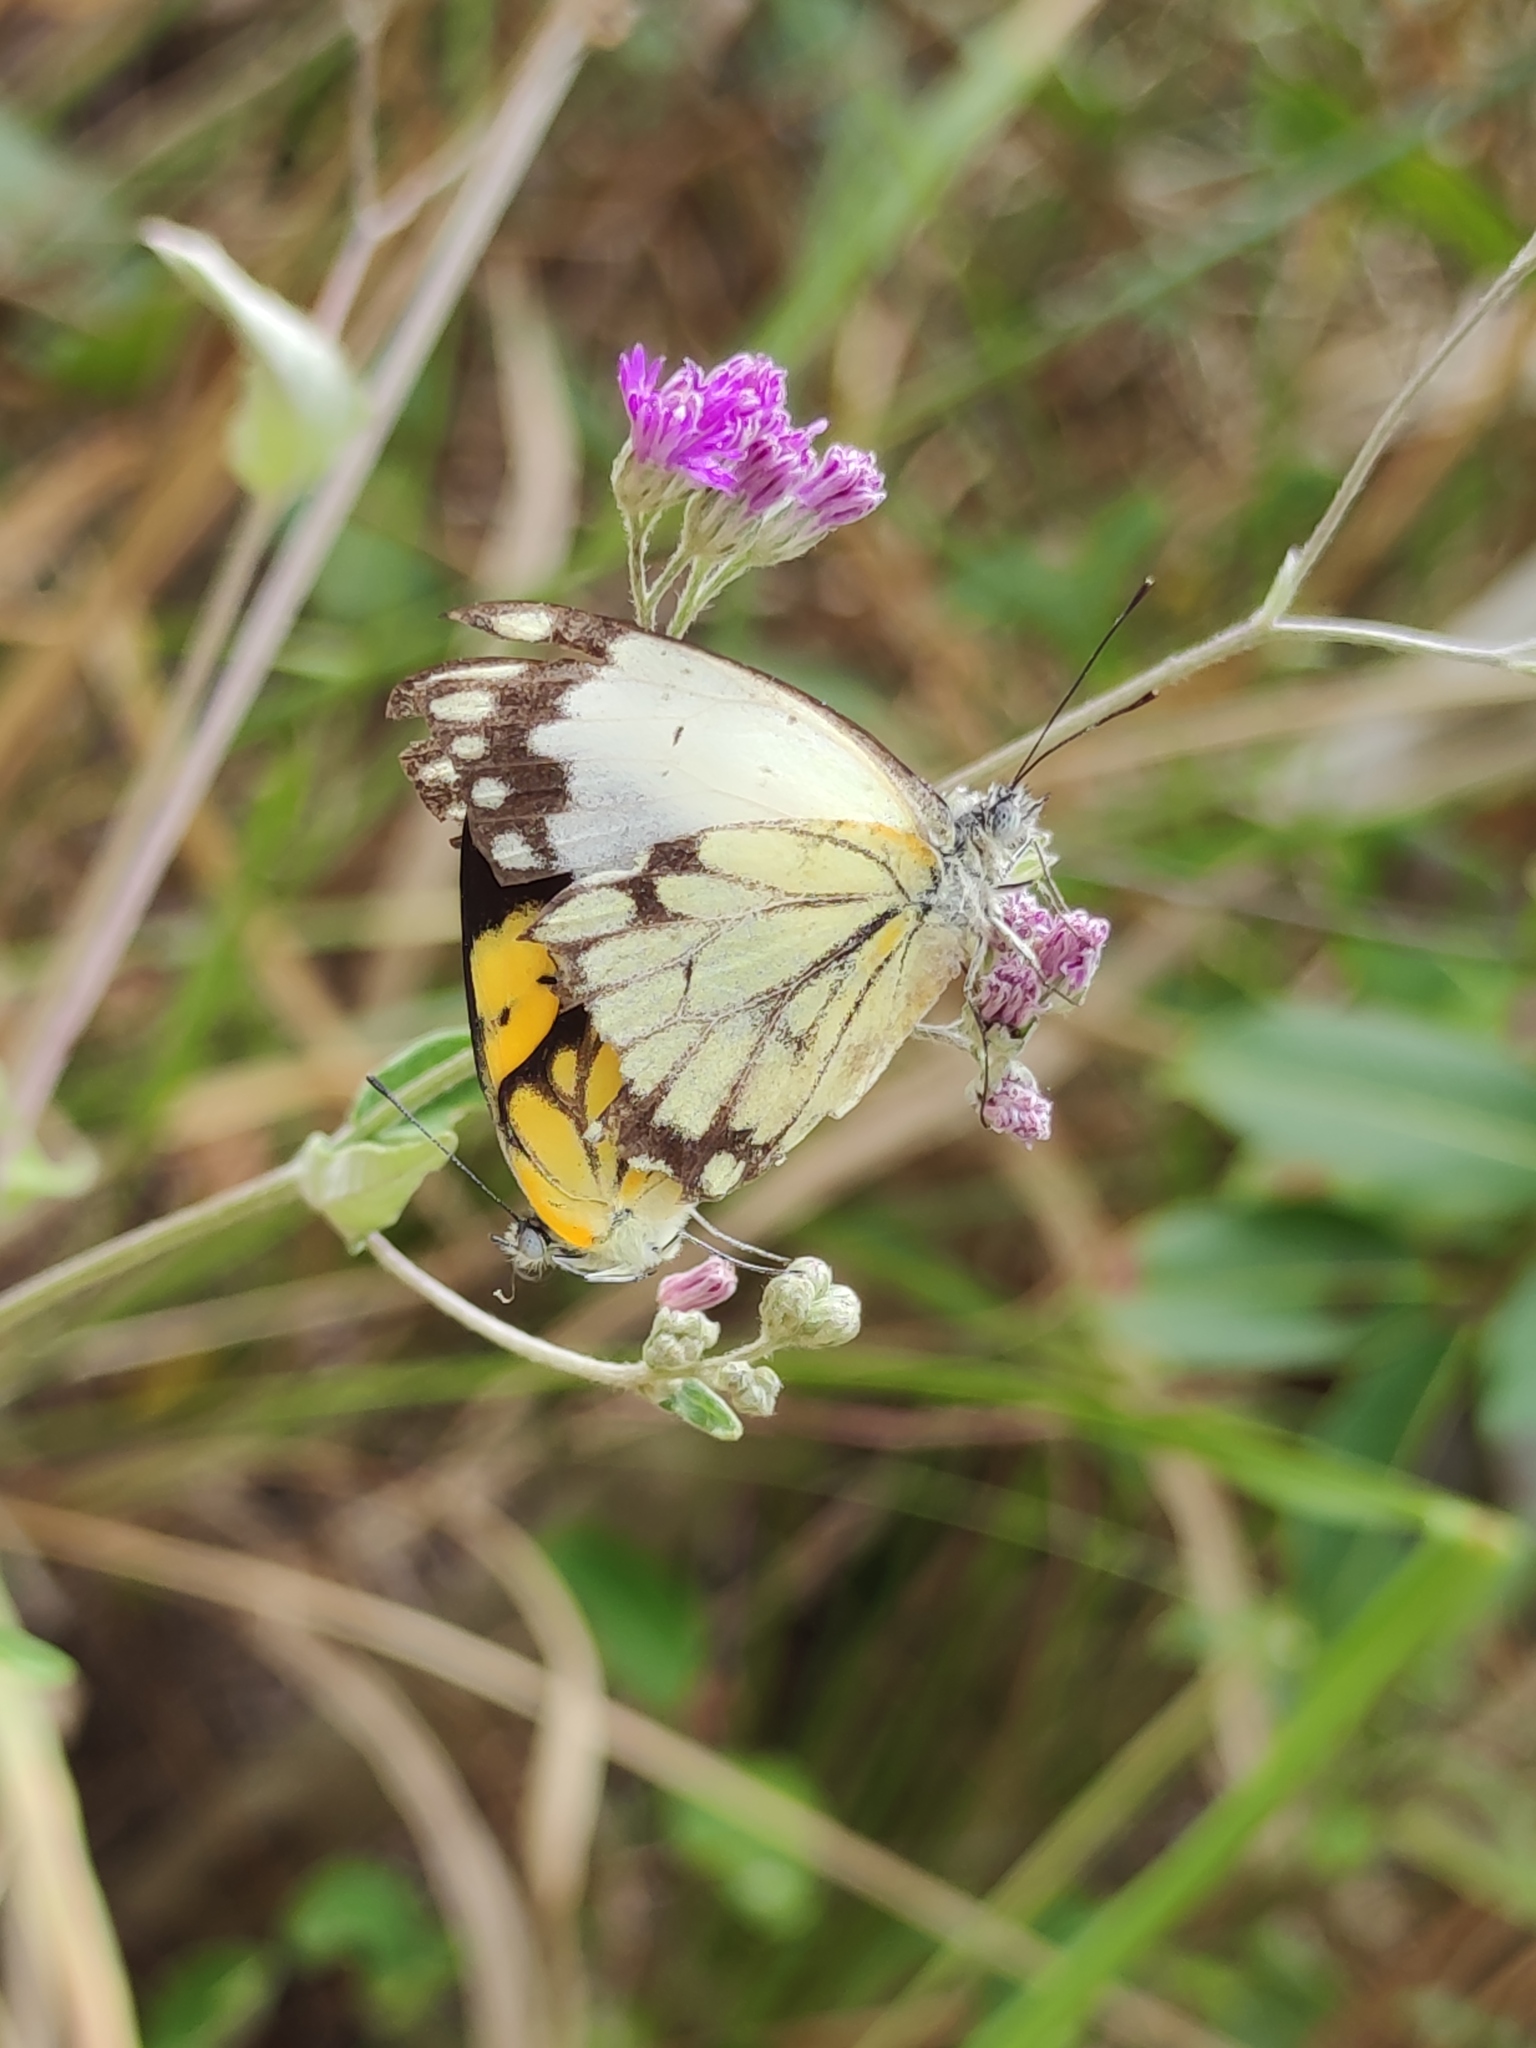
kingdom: Animalia
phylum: Arthropoda
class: Insecta
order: Lepidoptera
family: Pieridae
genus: Belenois
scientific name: Belenois creona
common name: African caper white
